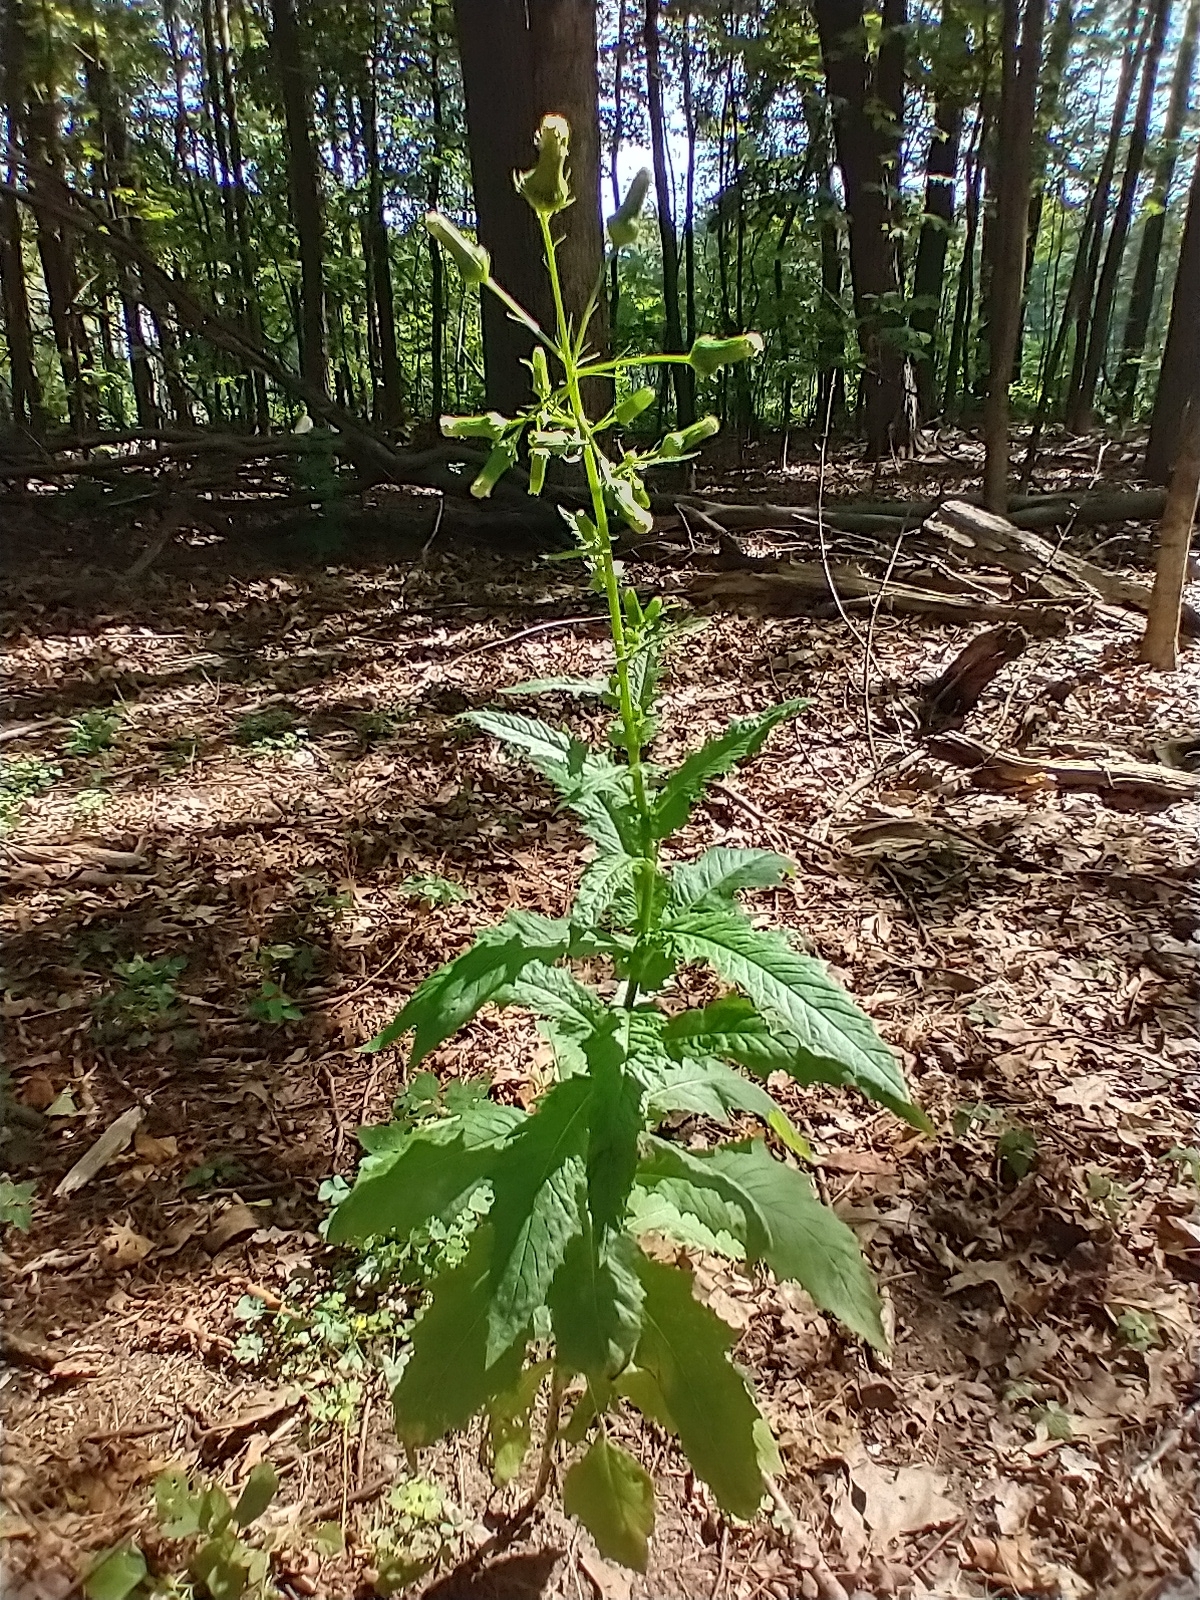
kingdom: Plantae
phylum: Tracheophyta
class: Magnoliopsida
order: Asterales
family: Asteraceae
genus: Erechtites
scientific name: Erechtites hieraciifolius
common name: American burnweed
